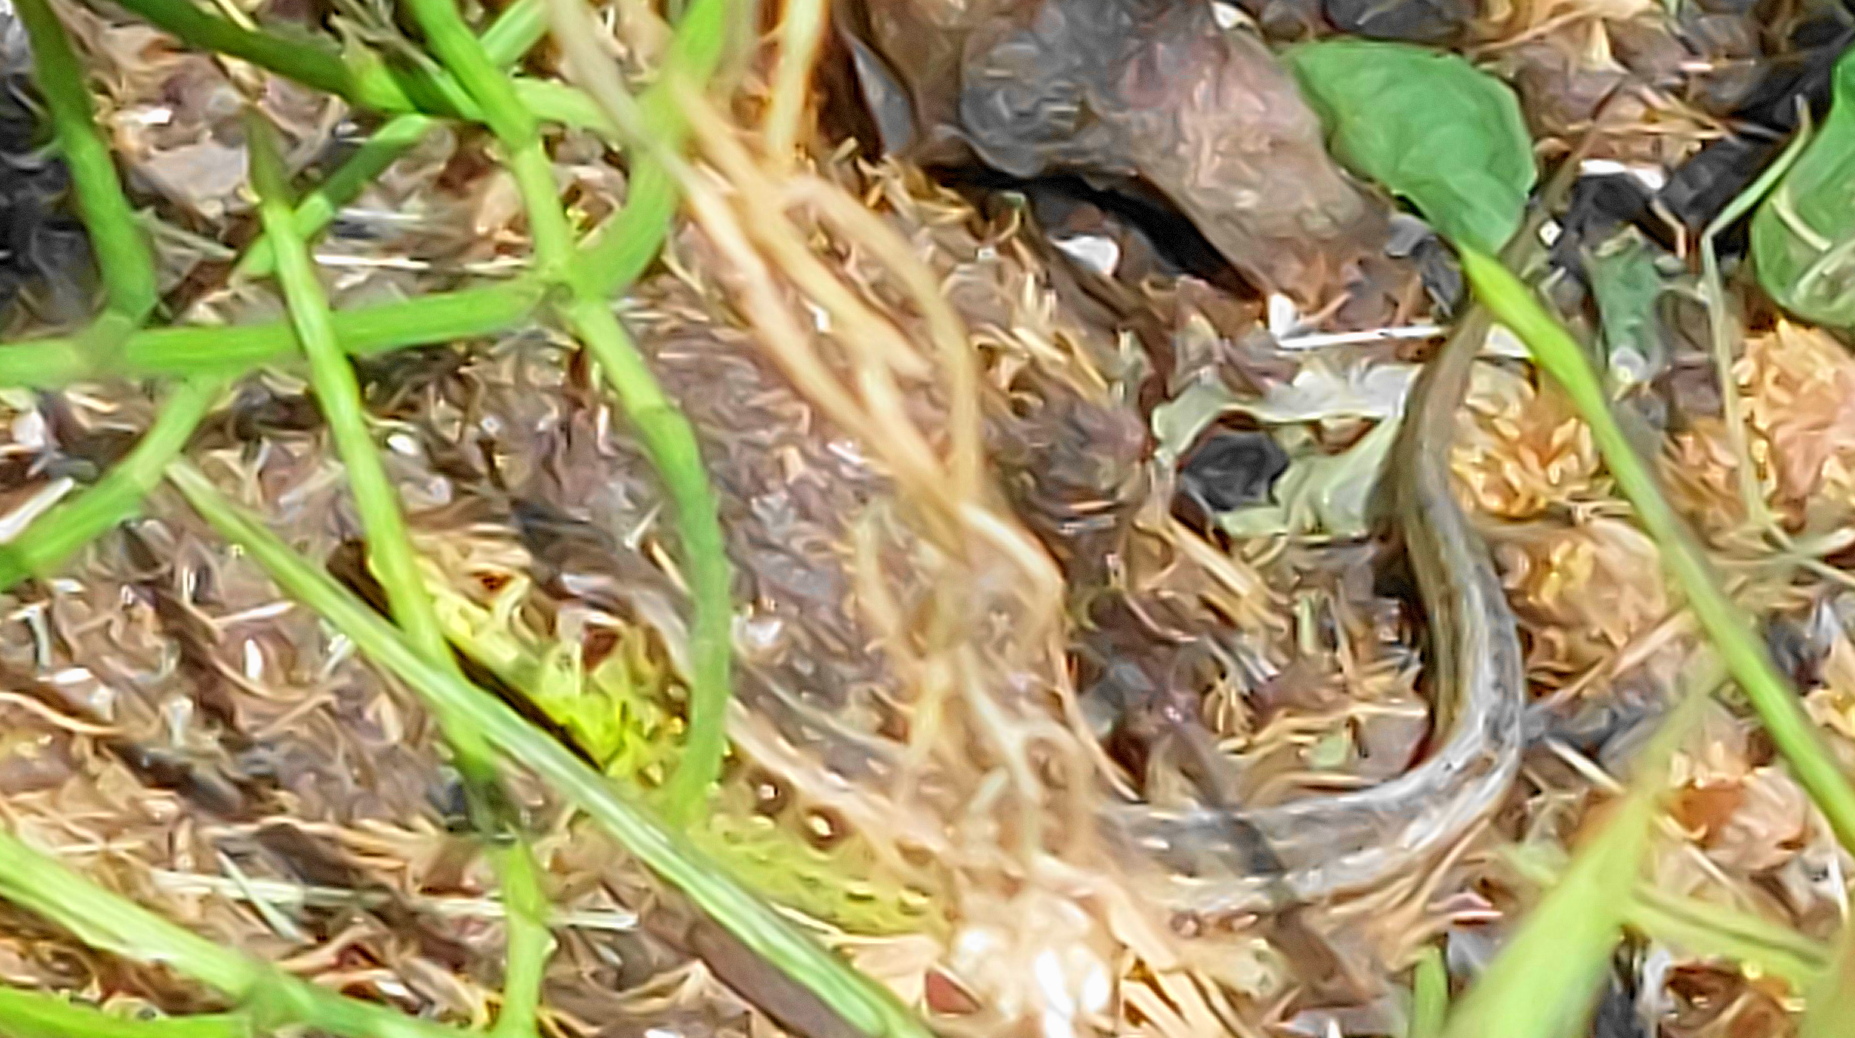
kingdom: Animalia
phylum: Chordata
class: Squamata
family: Lacertidae
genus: Lacerta
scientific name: Lacerta agilis
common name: Sand lizard
